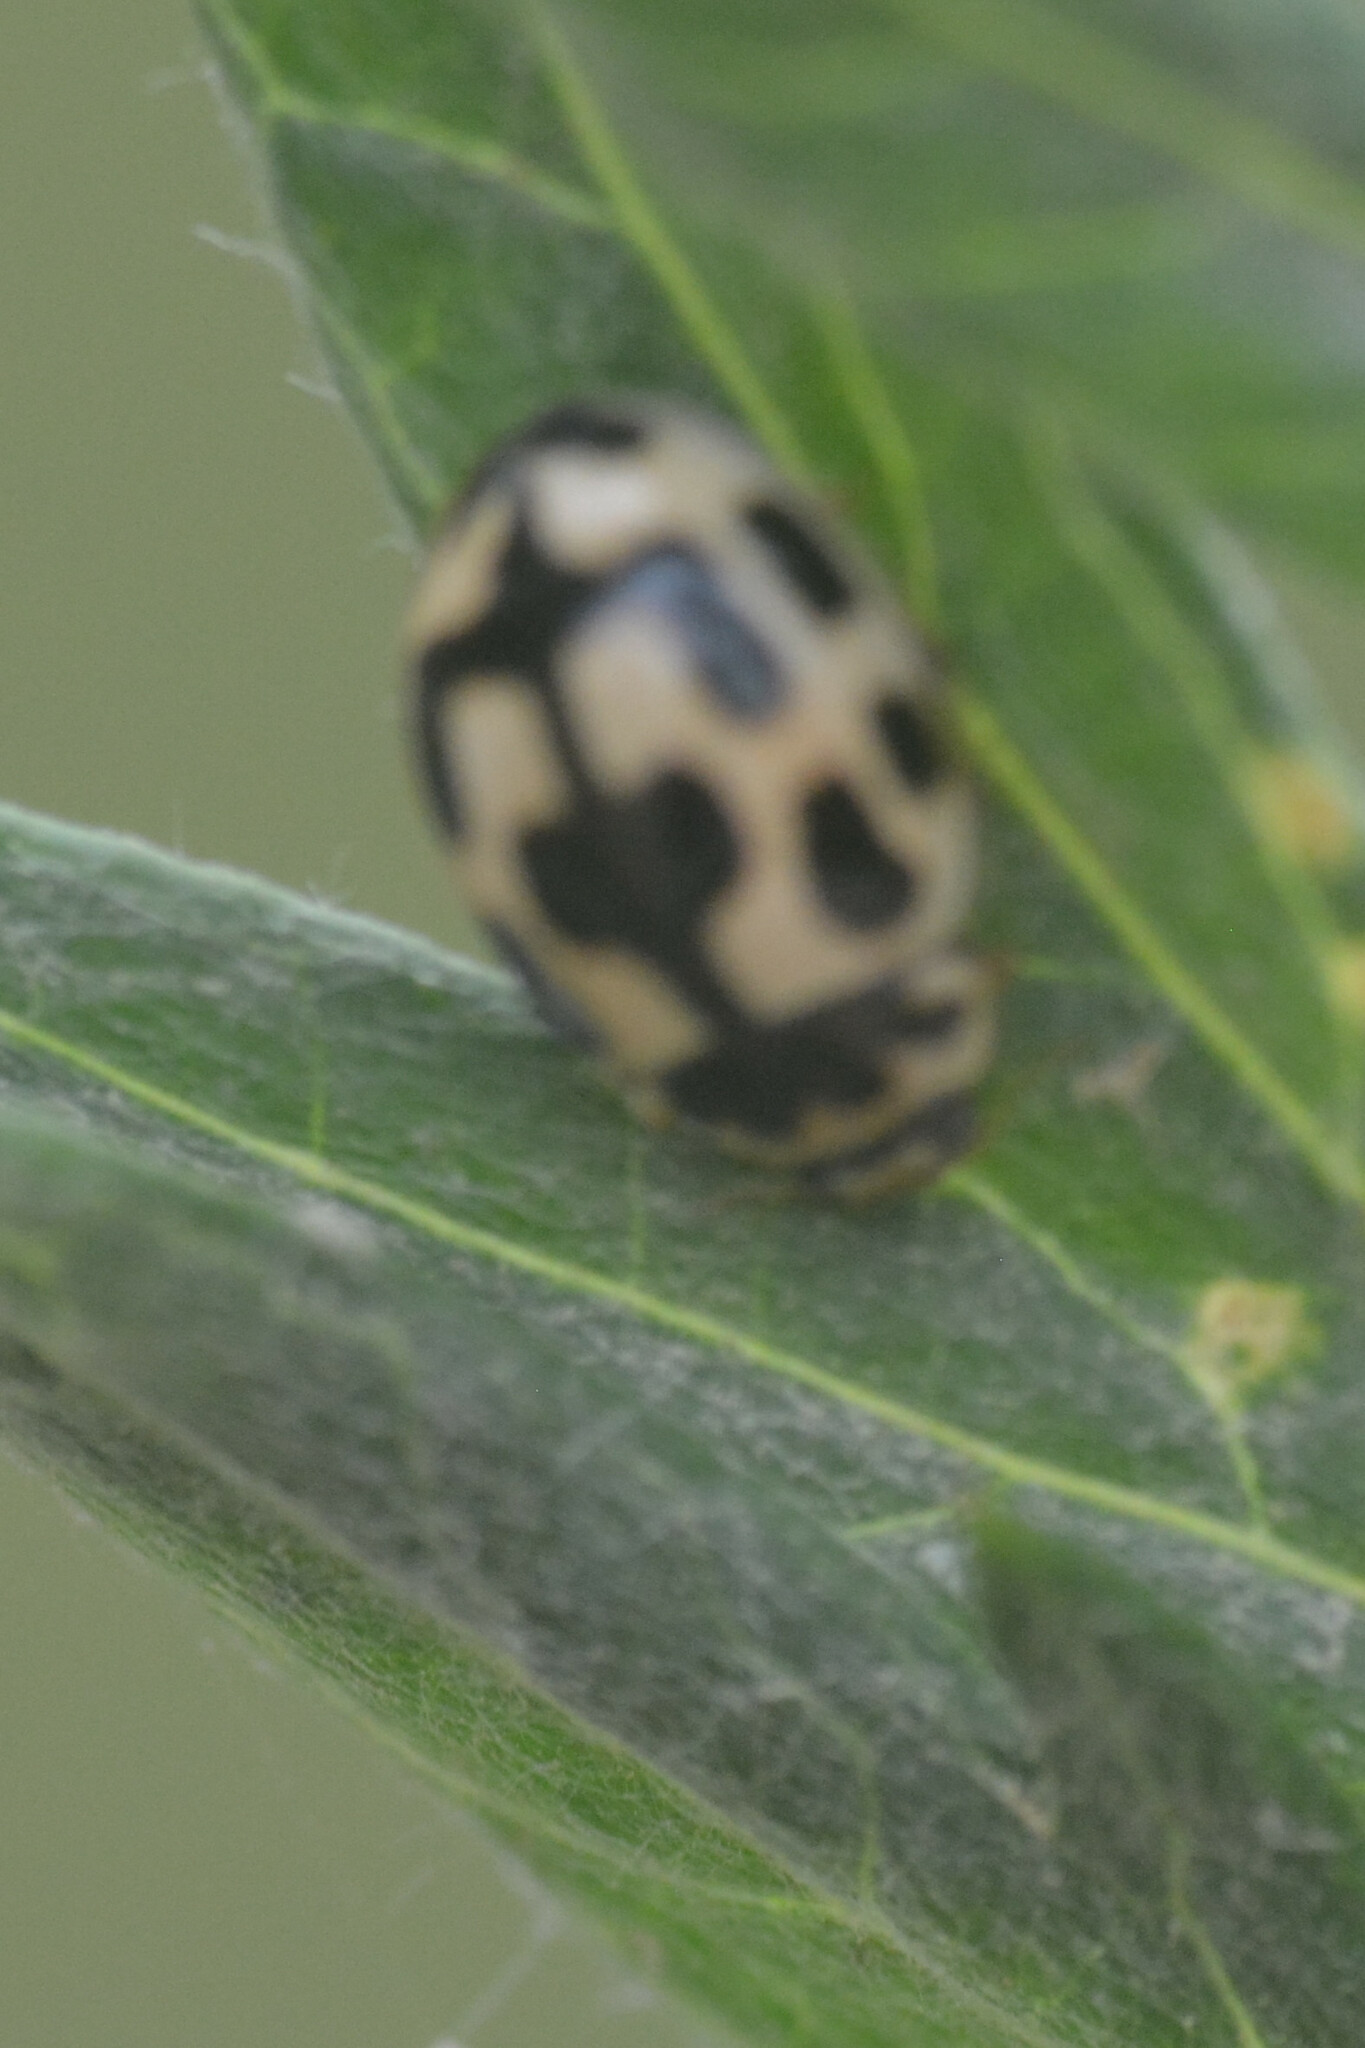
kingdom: Animalia
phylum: Arthropoda
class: Insecta
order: Coleoptera
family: Coccinellidae
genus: Propylaea
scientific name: Propylaea quatuordecimpunctata
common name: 14-spotted ladybird beetle
